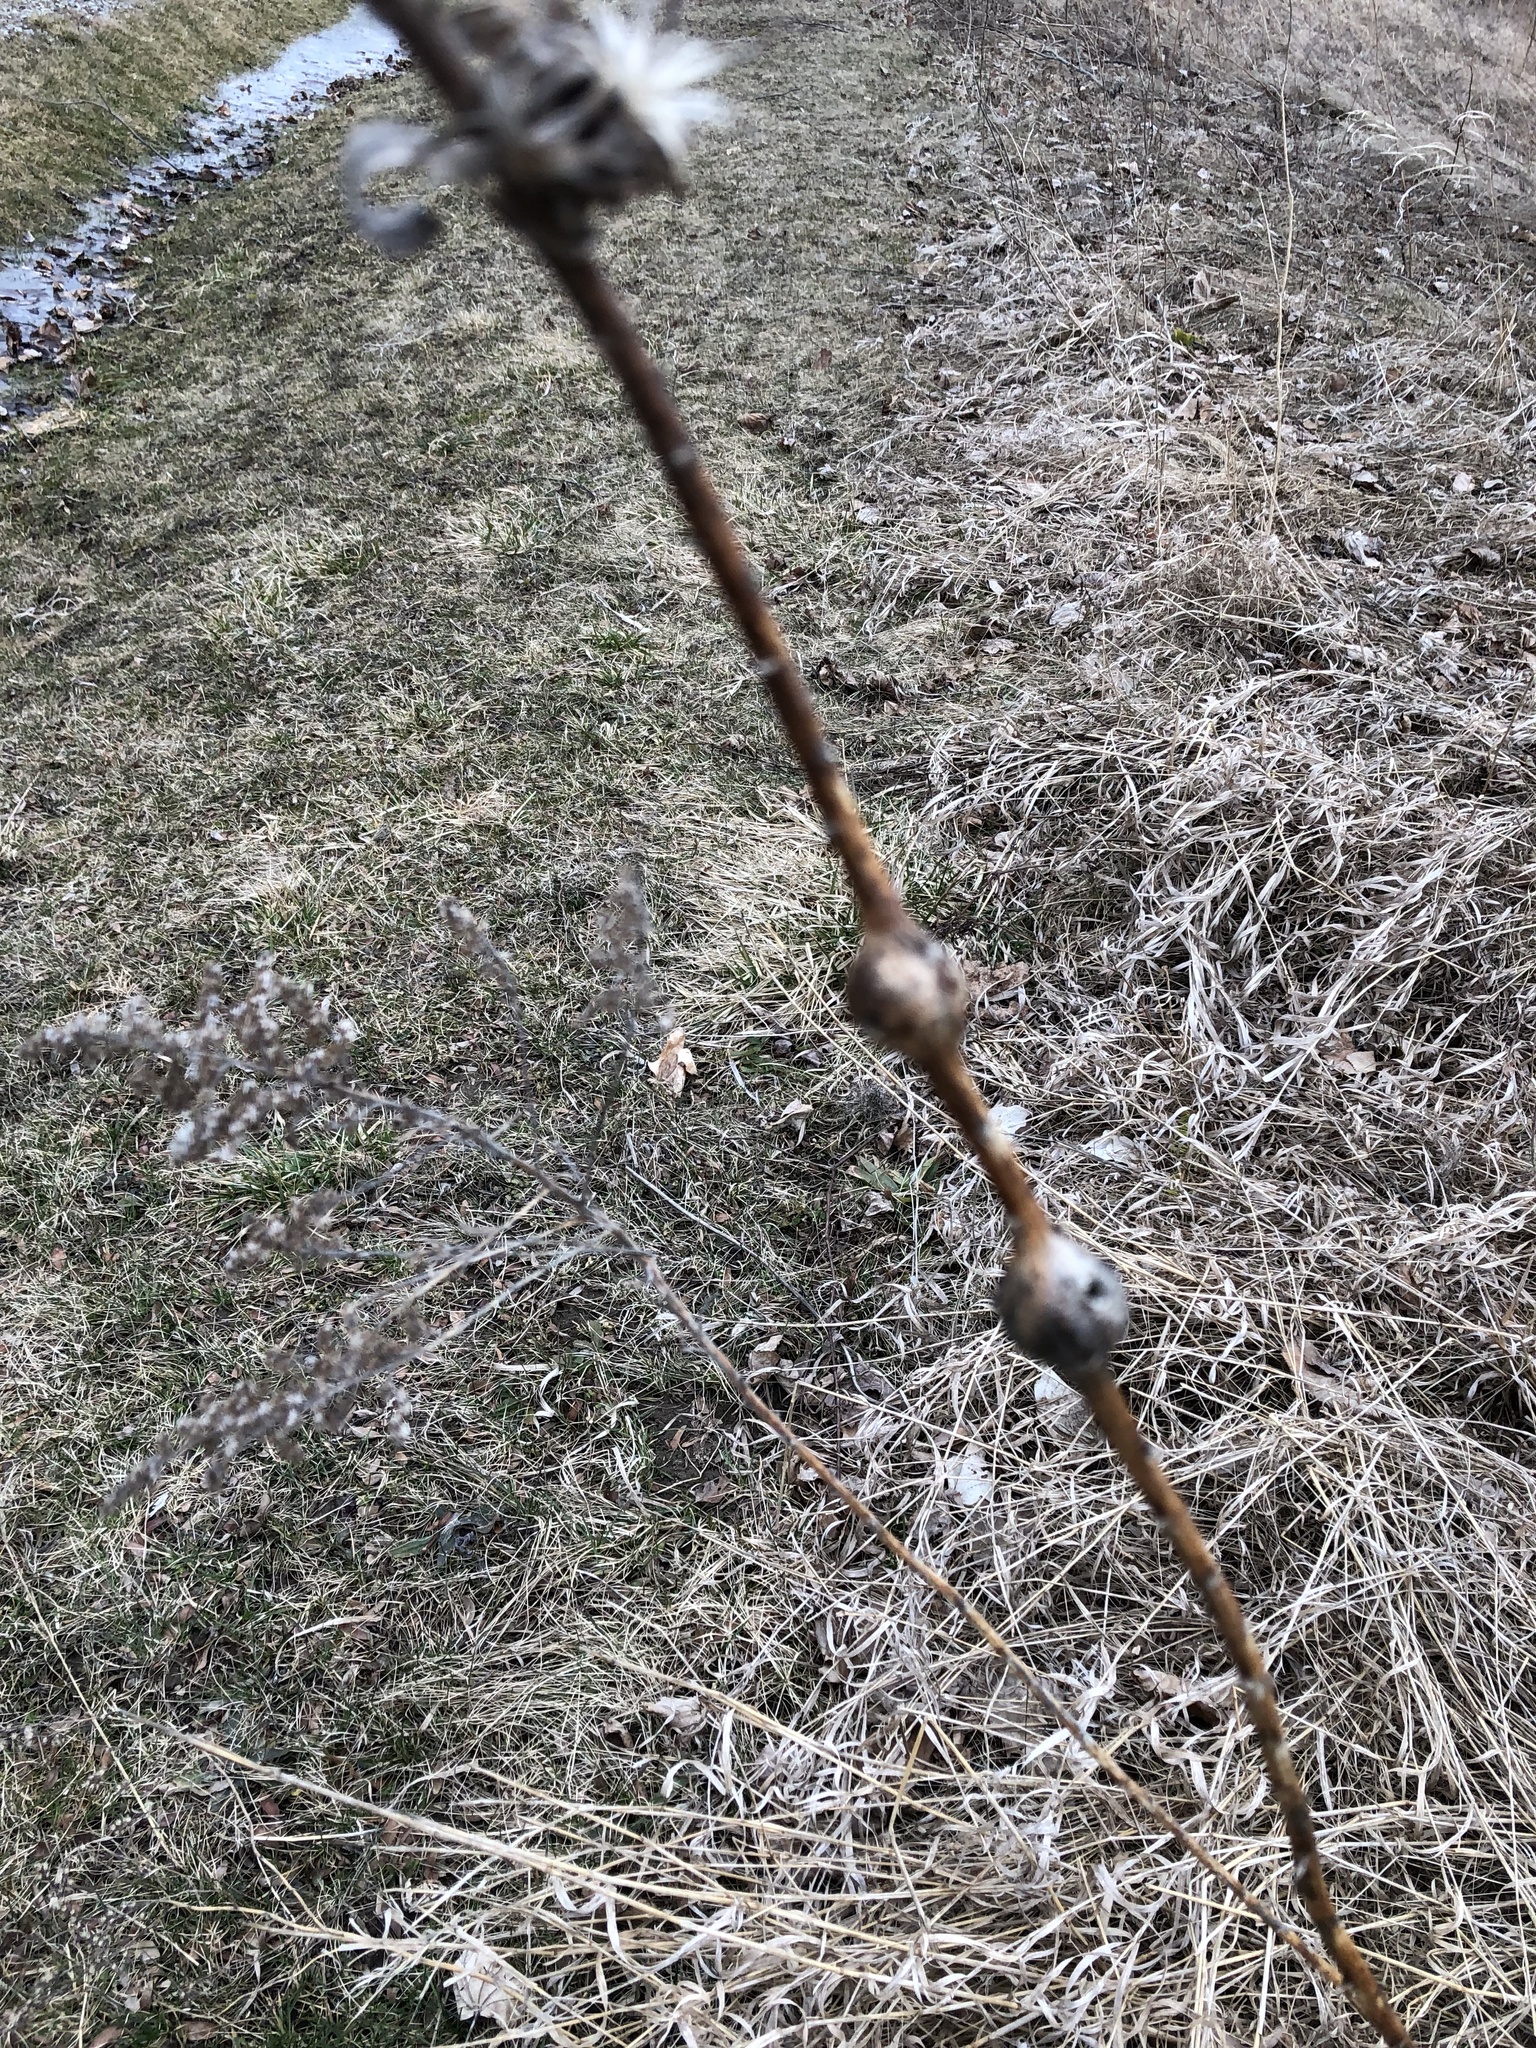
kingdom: Animalia
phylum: Arthropoda
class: Insecta
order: Diptera
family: Tephritidae
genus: Eurosta
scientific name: Eurosta solidaginis
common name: Goldenrod gall fly
